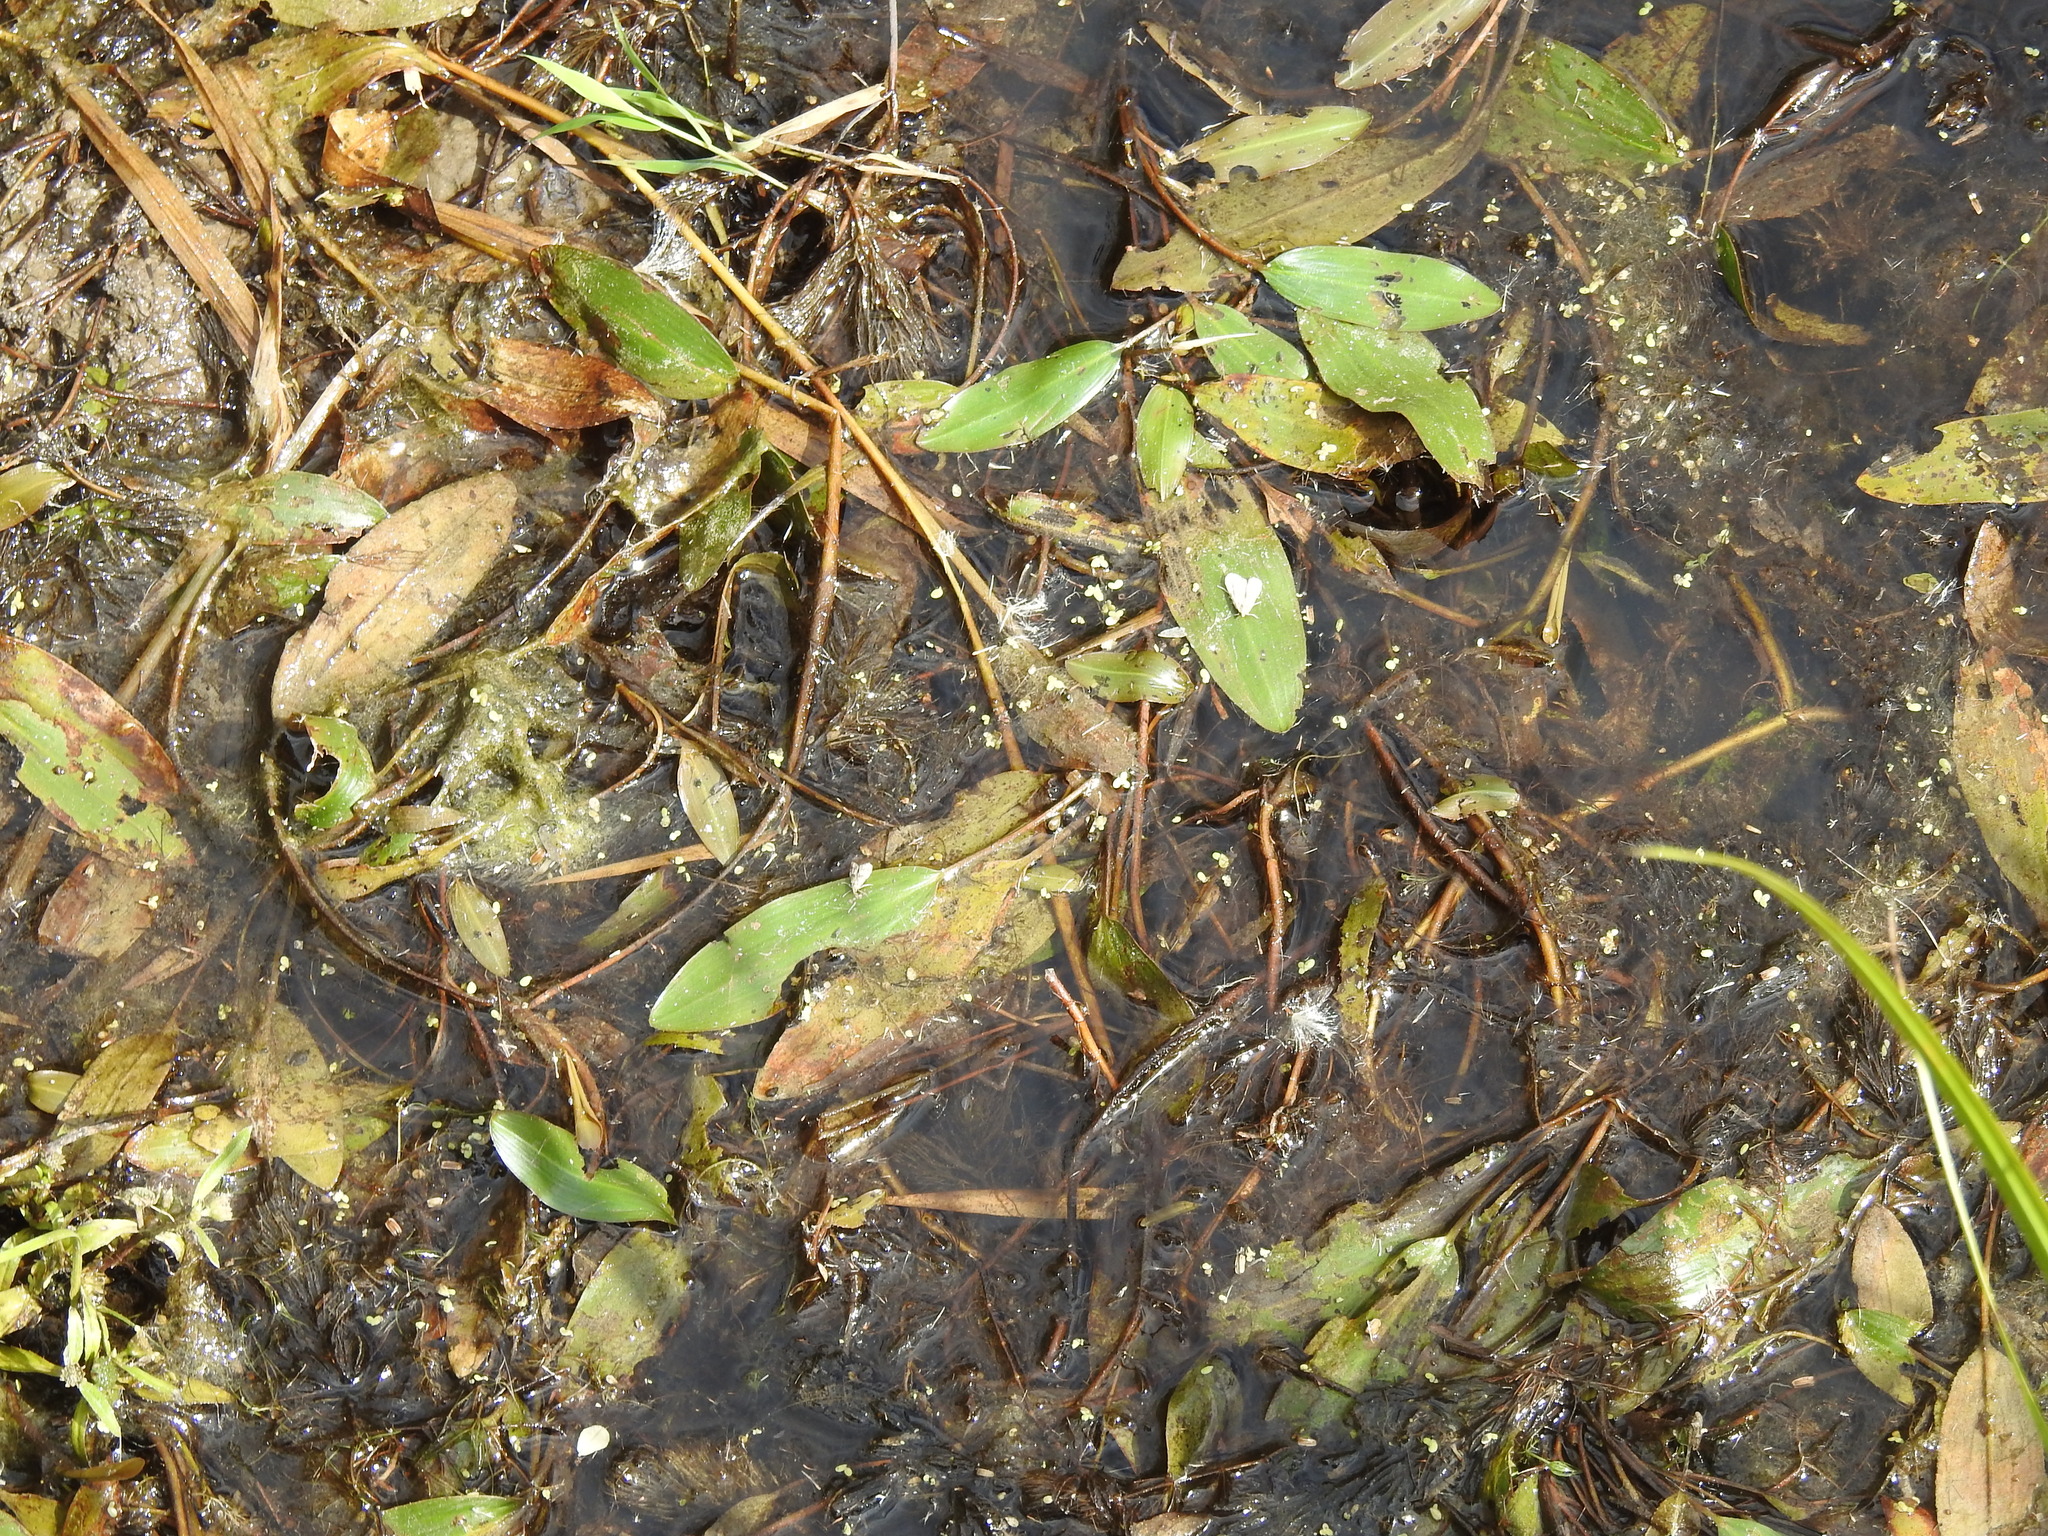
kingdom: Plantae
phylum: Tracheophyta
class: Liliopsida
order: Alismatales
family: Potamogetonaceae
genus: Potamogeton
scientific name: Potamogeton nodosus
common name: Loddon pondweed
